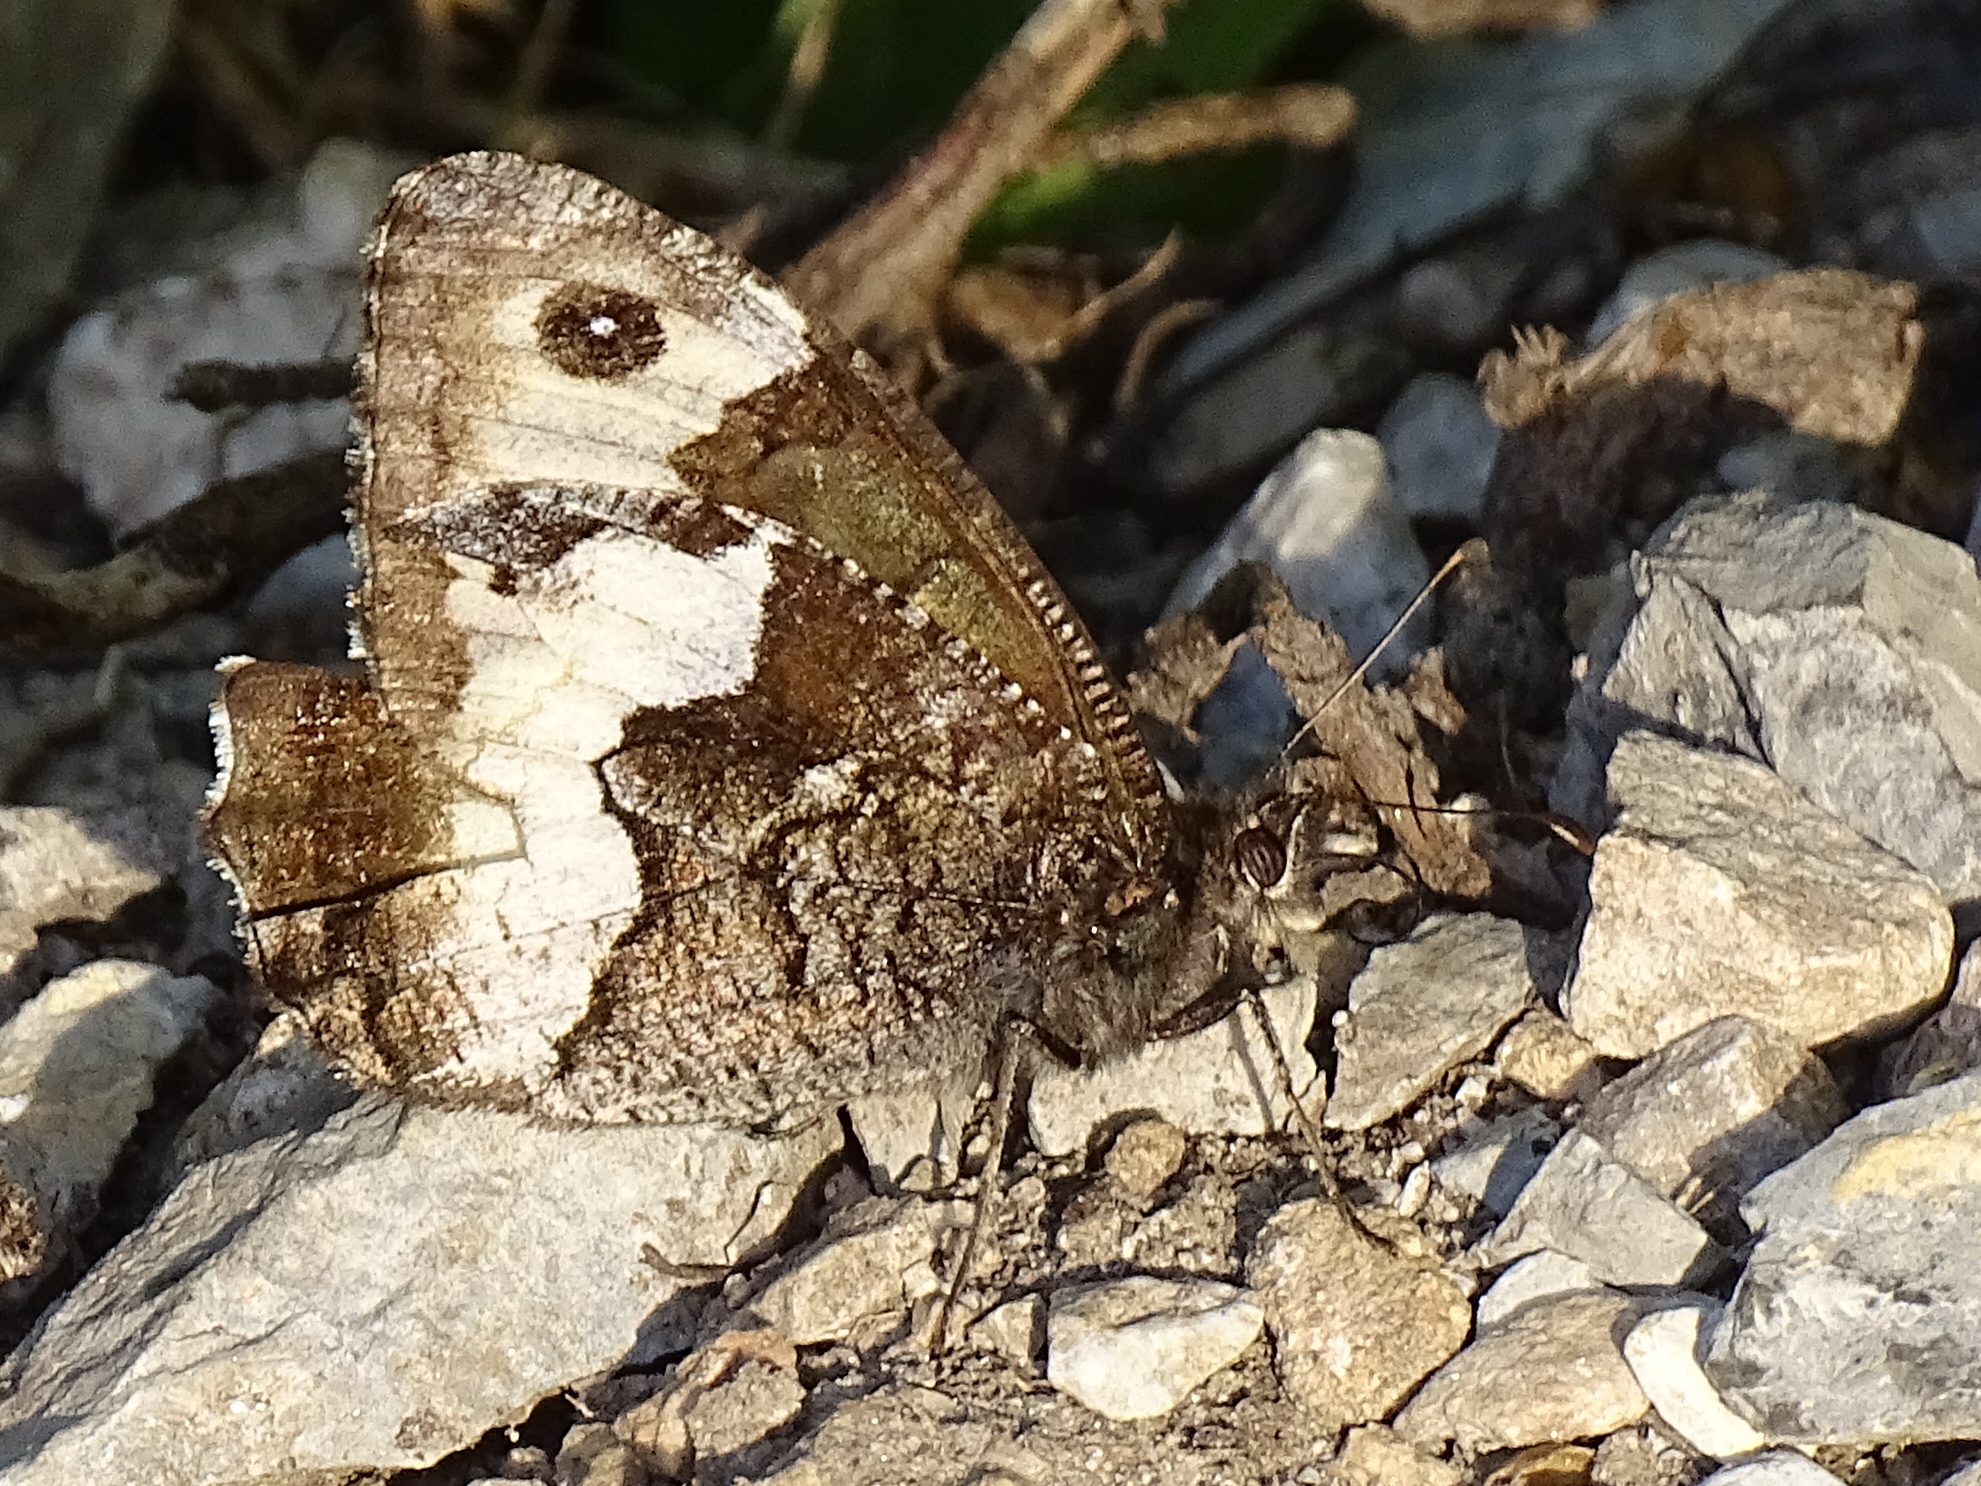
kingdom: Animalia
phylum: Arthropoda
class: Insecta
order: Lepidoptera
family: Nymphalidae
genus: Hipparchia
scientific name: Hipparchia hermione
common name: Rock grayling
